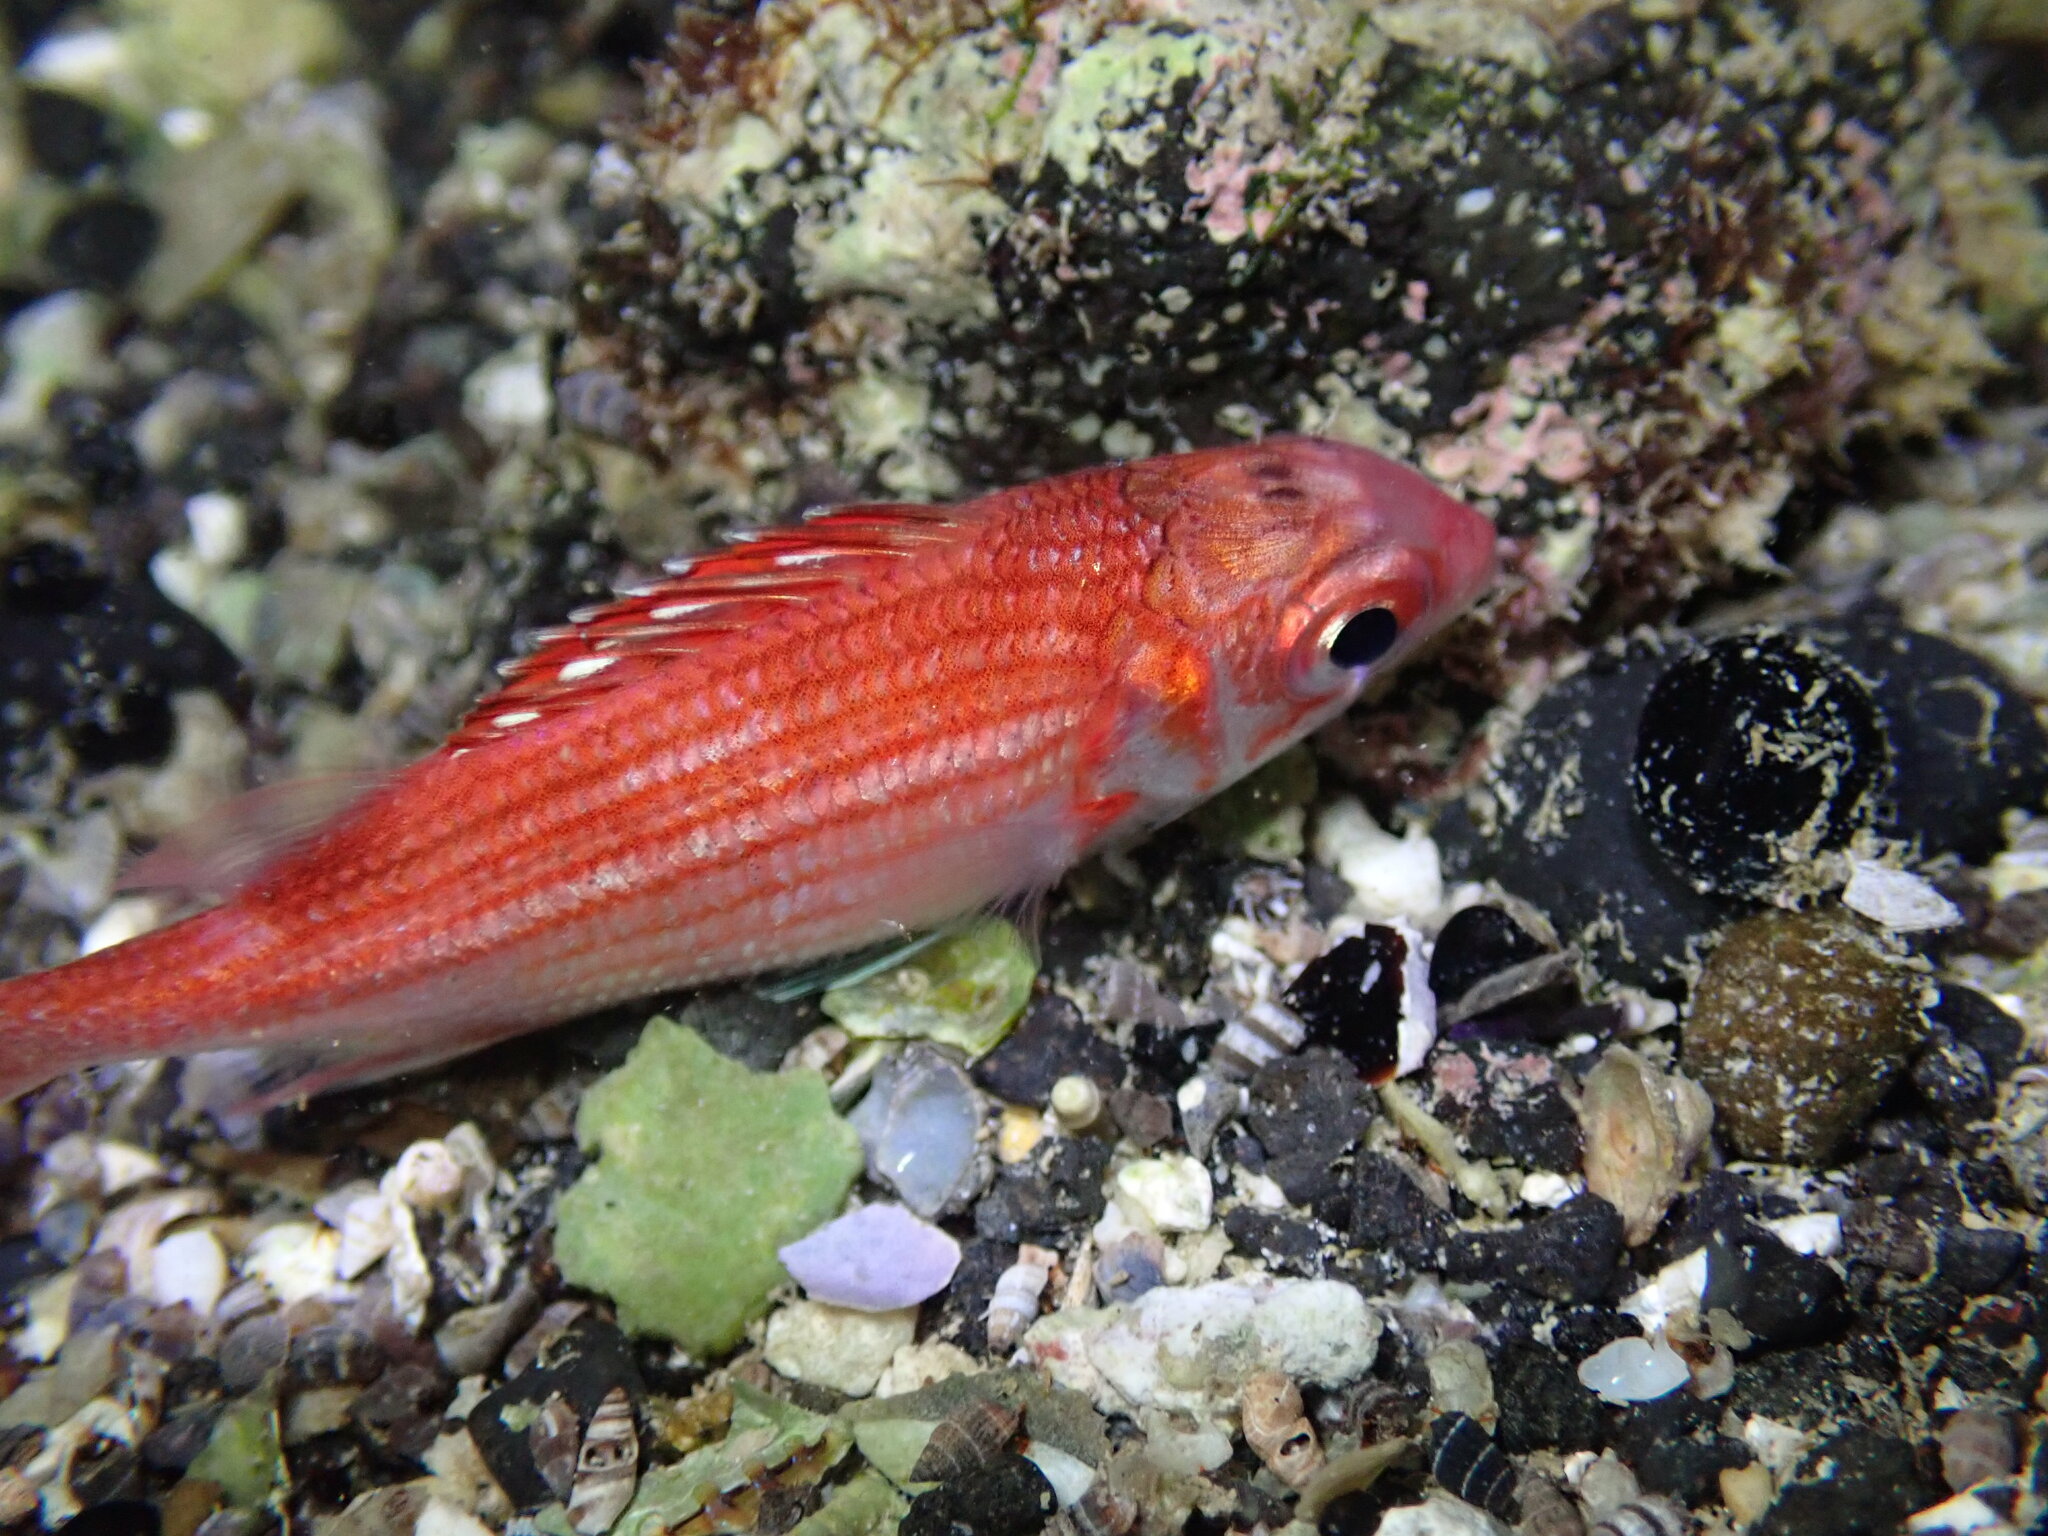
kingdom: Animalia
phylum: Chordata
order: Beryciformes
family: Holocentridae
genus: Sargocentron
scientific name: Sargocentron punctatissimum
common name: Peppered squirrelfish
